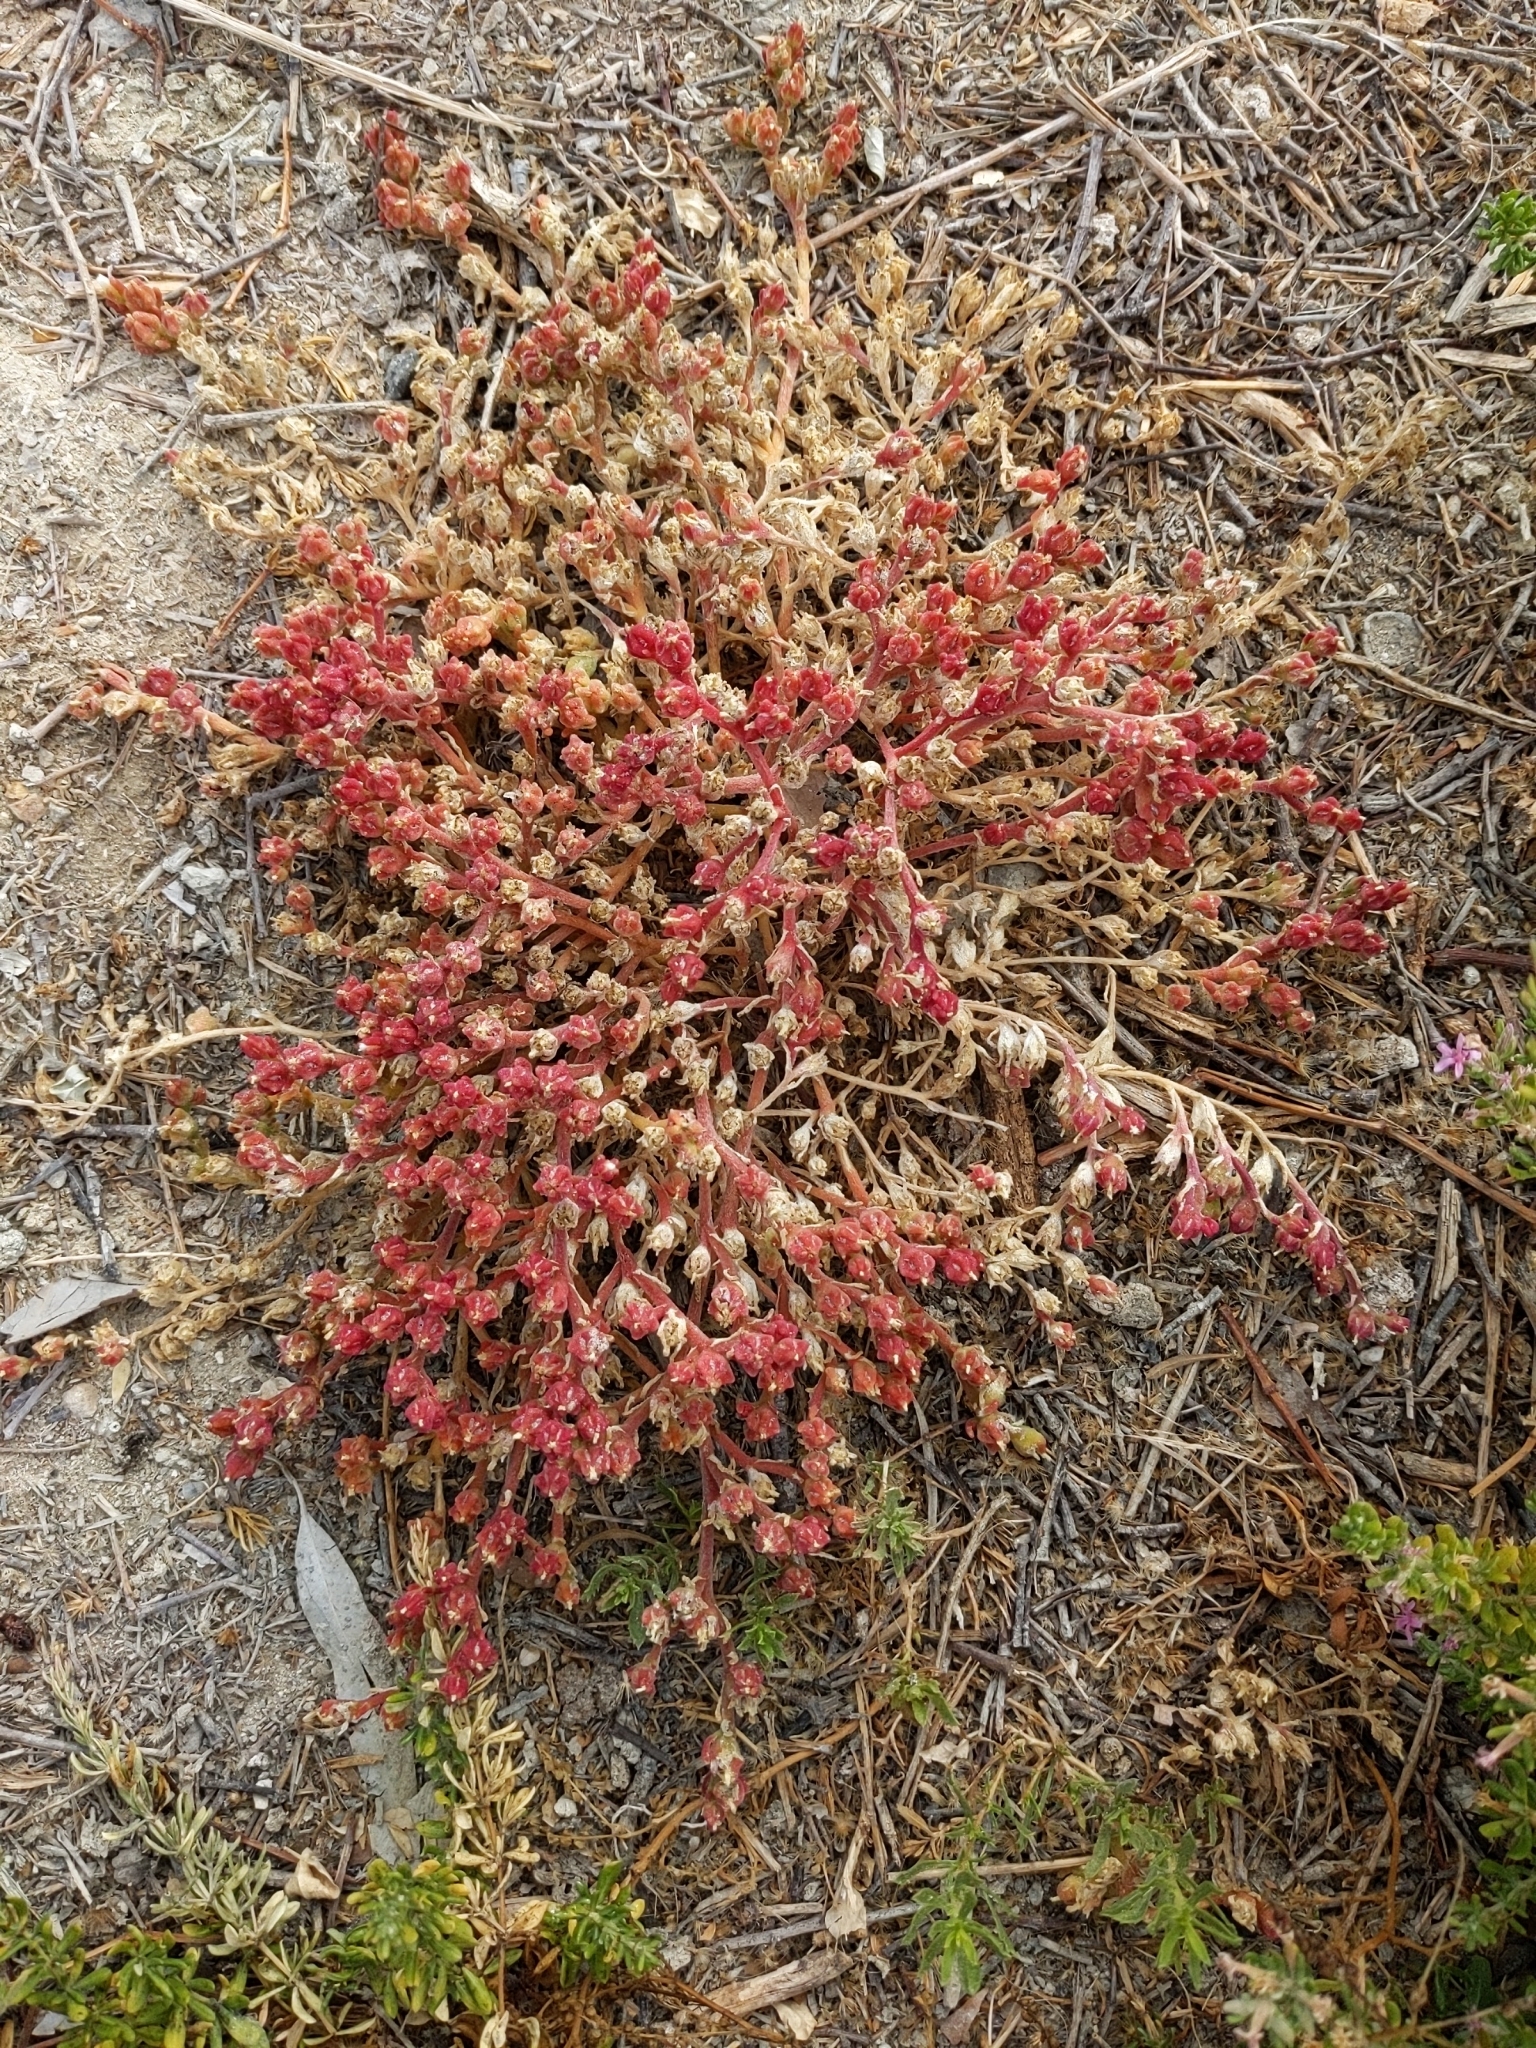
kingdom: Plantae
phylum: Tracheophyta
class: Magnoliopsida
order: Caryophyllales
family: Aizoaceae
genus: Mesembryanthemum
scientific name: Mesembryanthemum crystallinum
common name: Common iceplant
